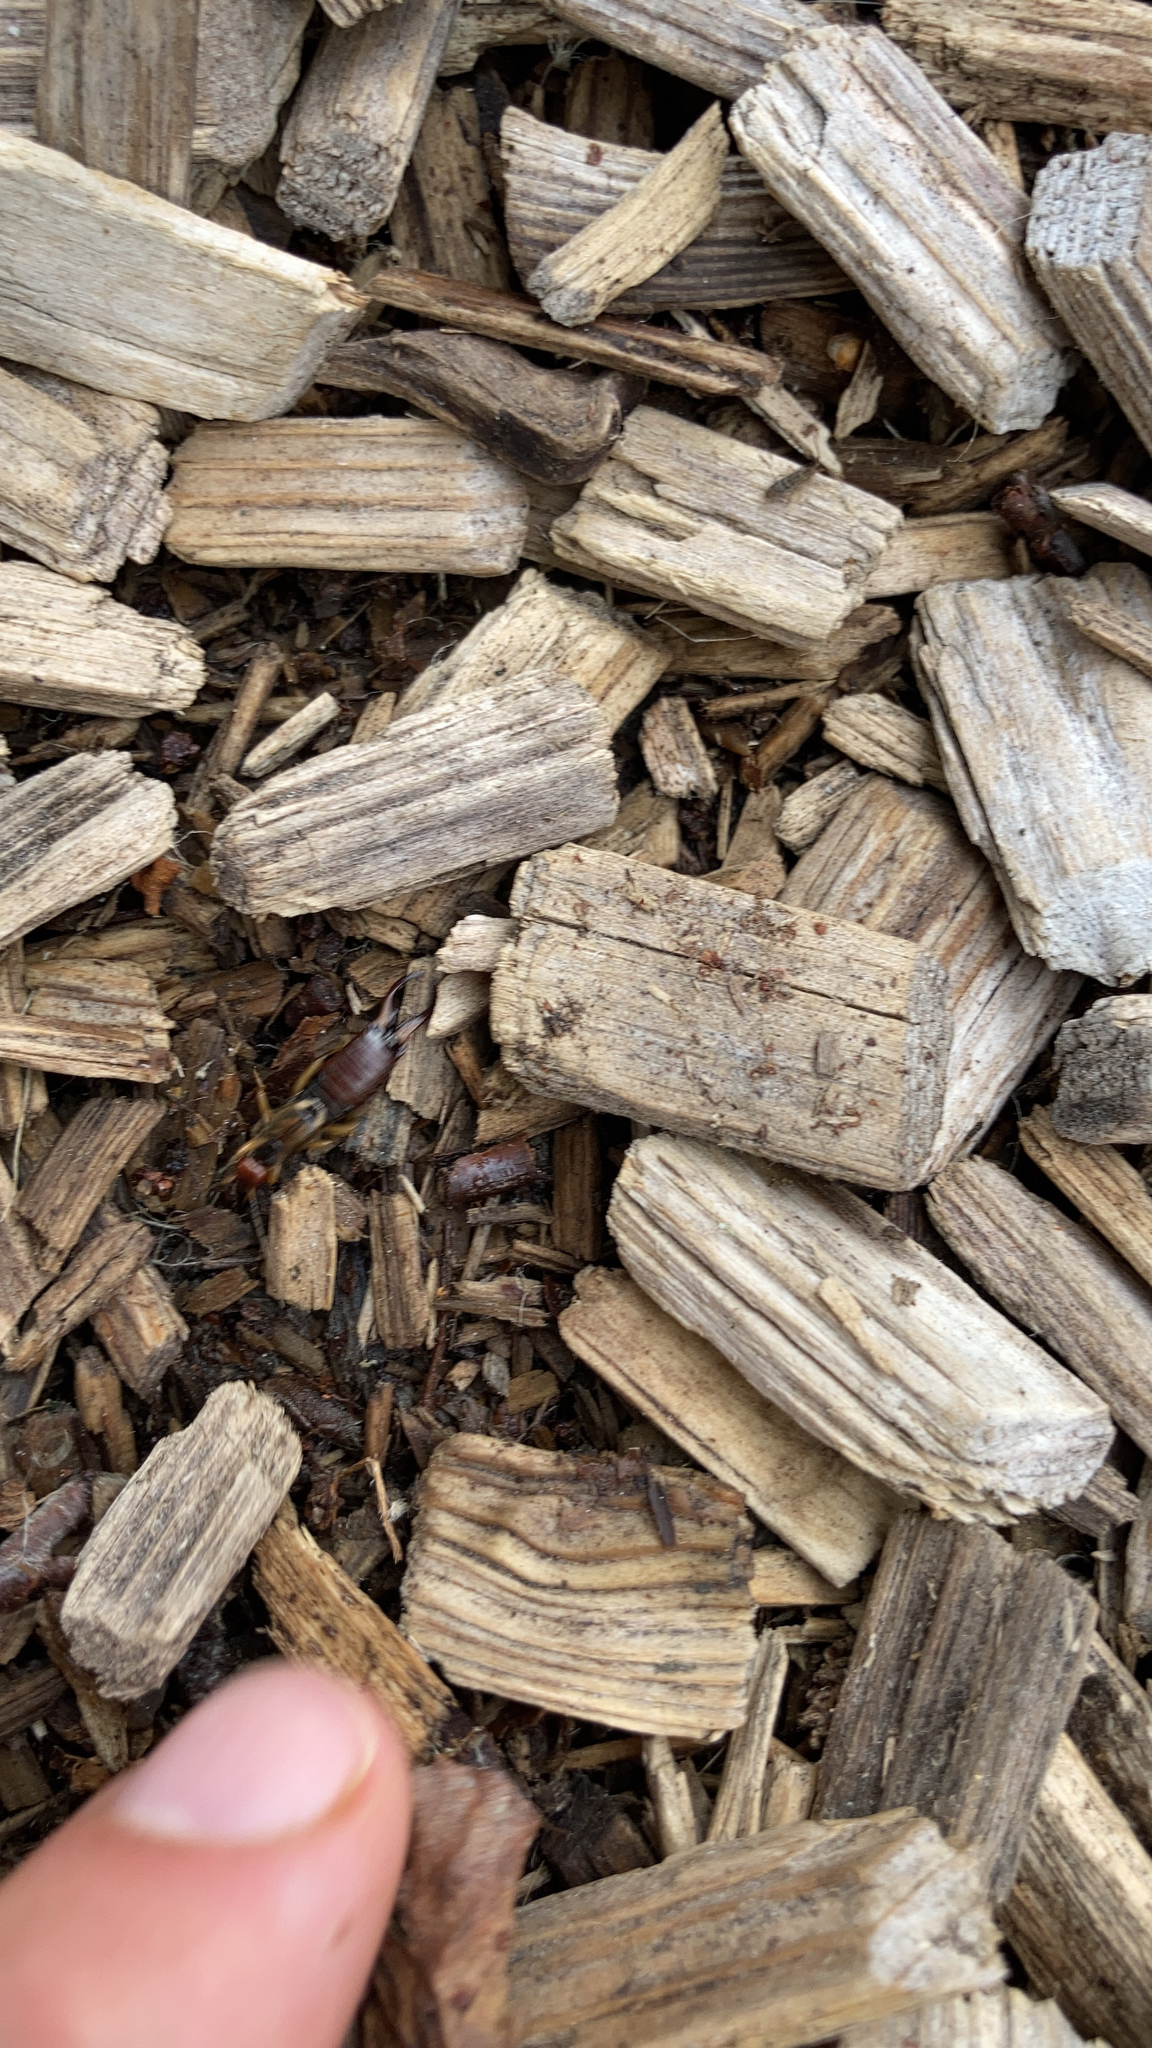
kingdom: Animalia
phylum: Arthropoda
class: Insecta
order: Dermaptera
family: Forficulidae
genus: Forficula
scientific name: Forficula
